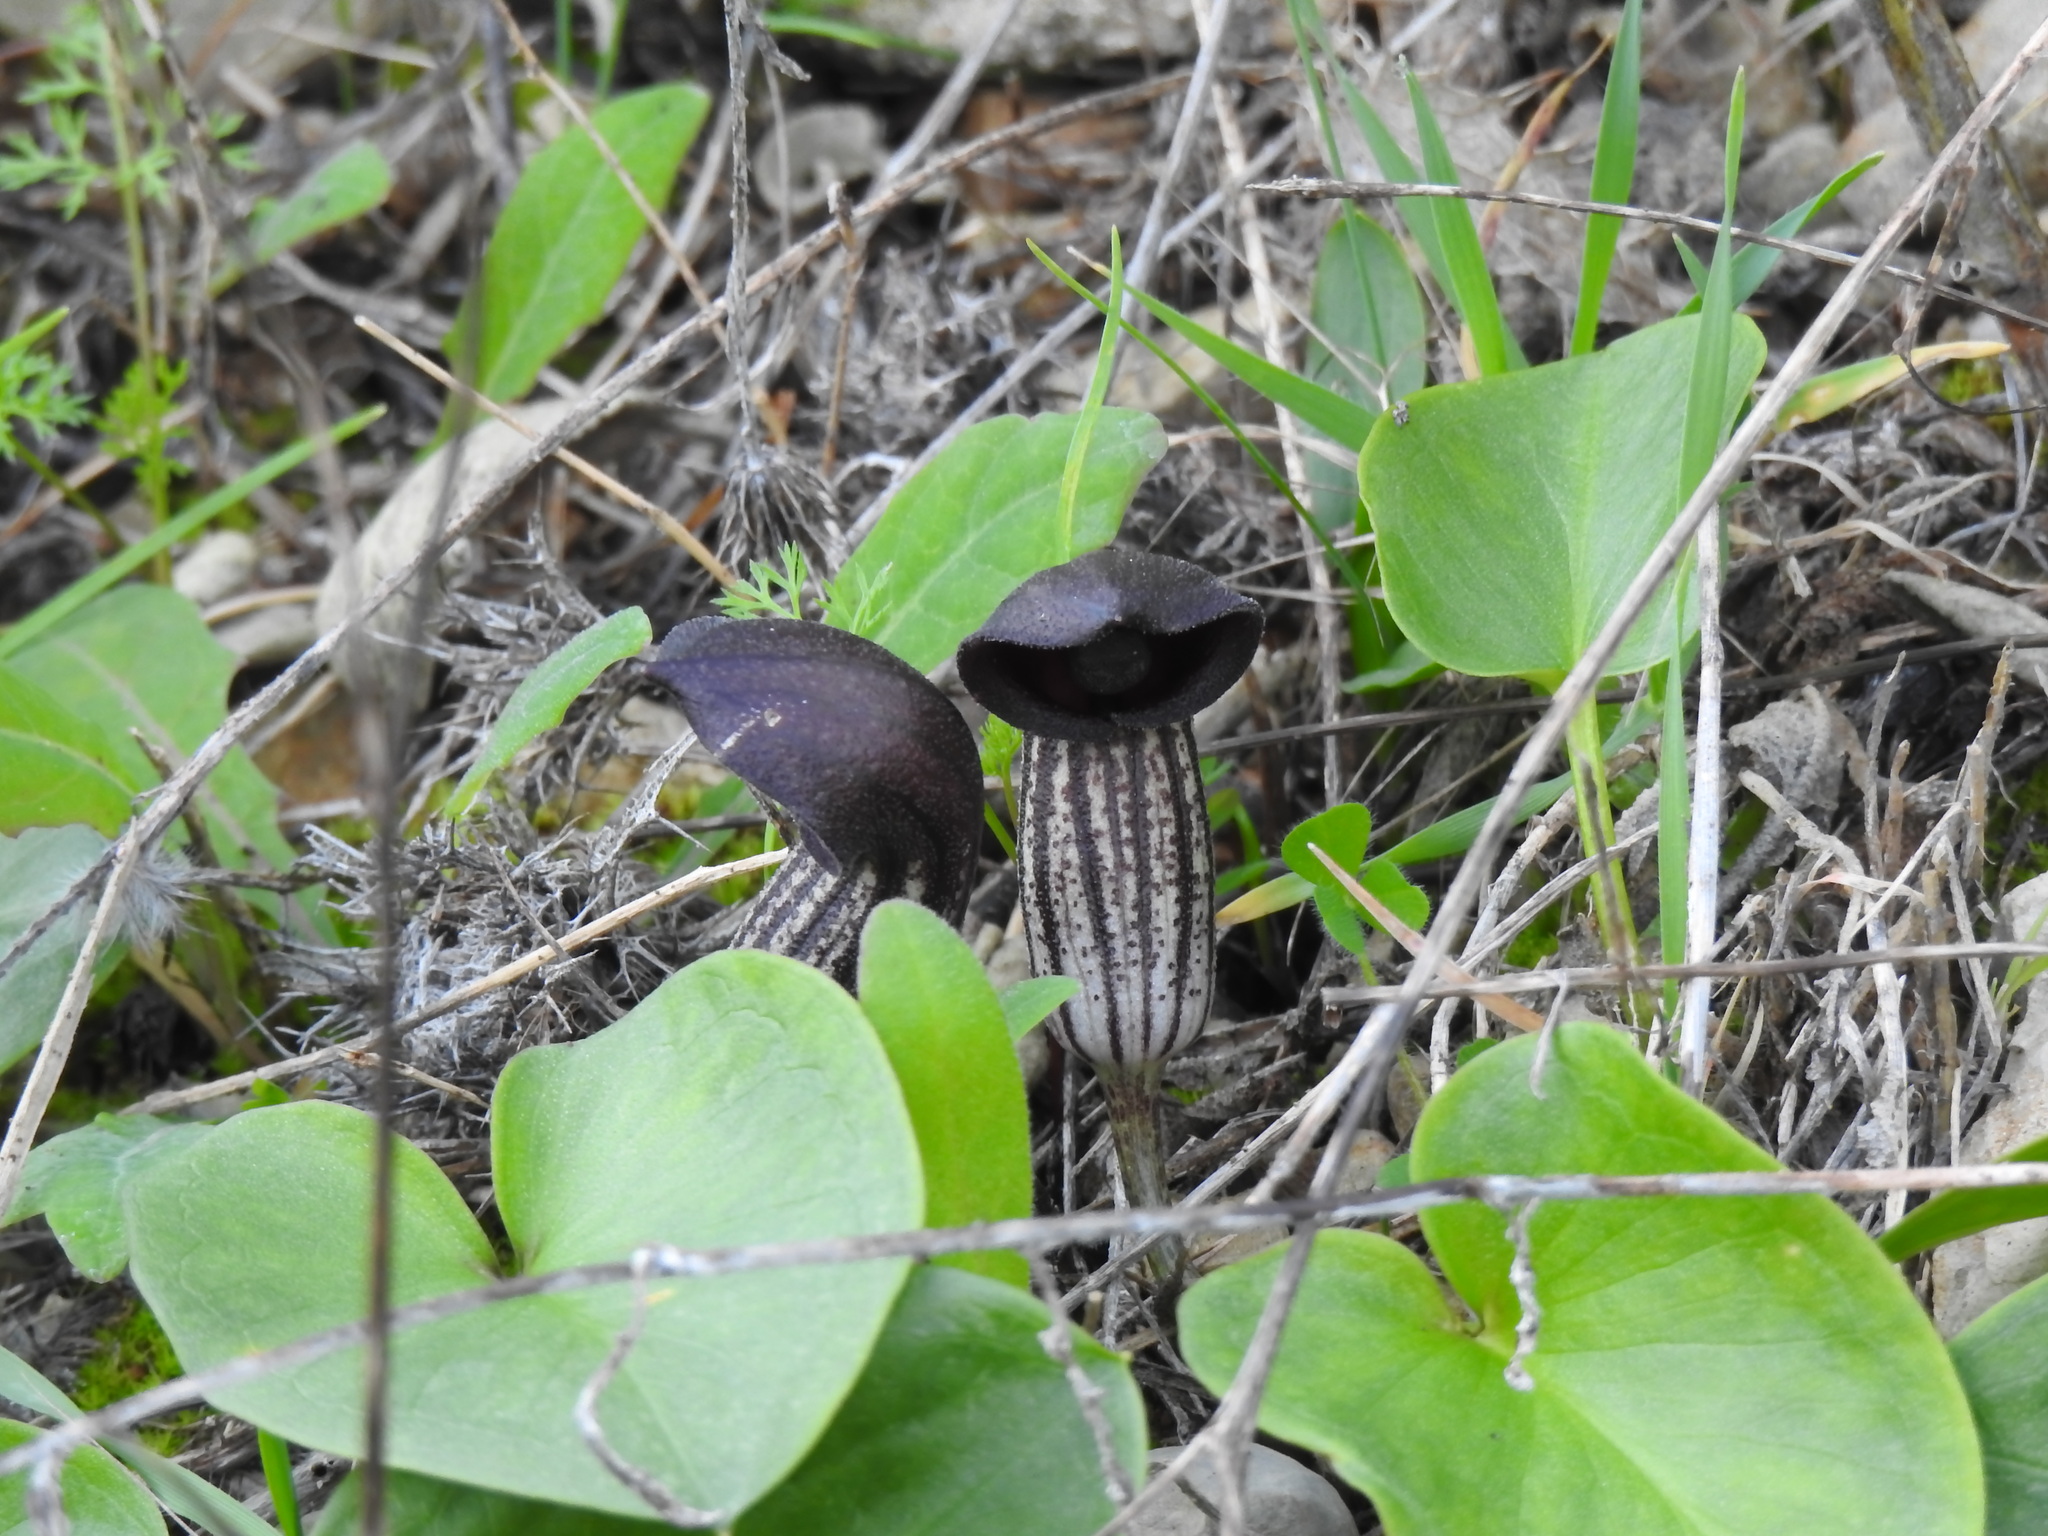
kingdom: Plantae
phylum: Tracheophyta
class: Liliopsida
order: Alismatales
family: Araceae
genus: Arisarum
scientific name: Arisarum simorrhinum
